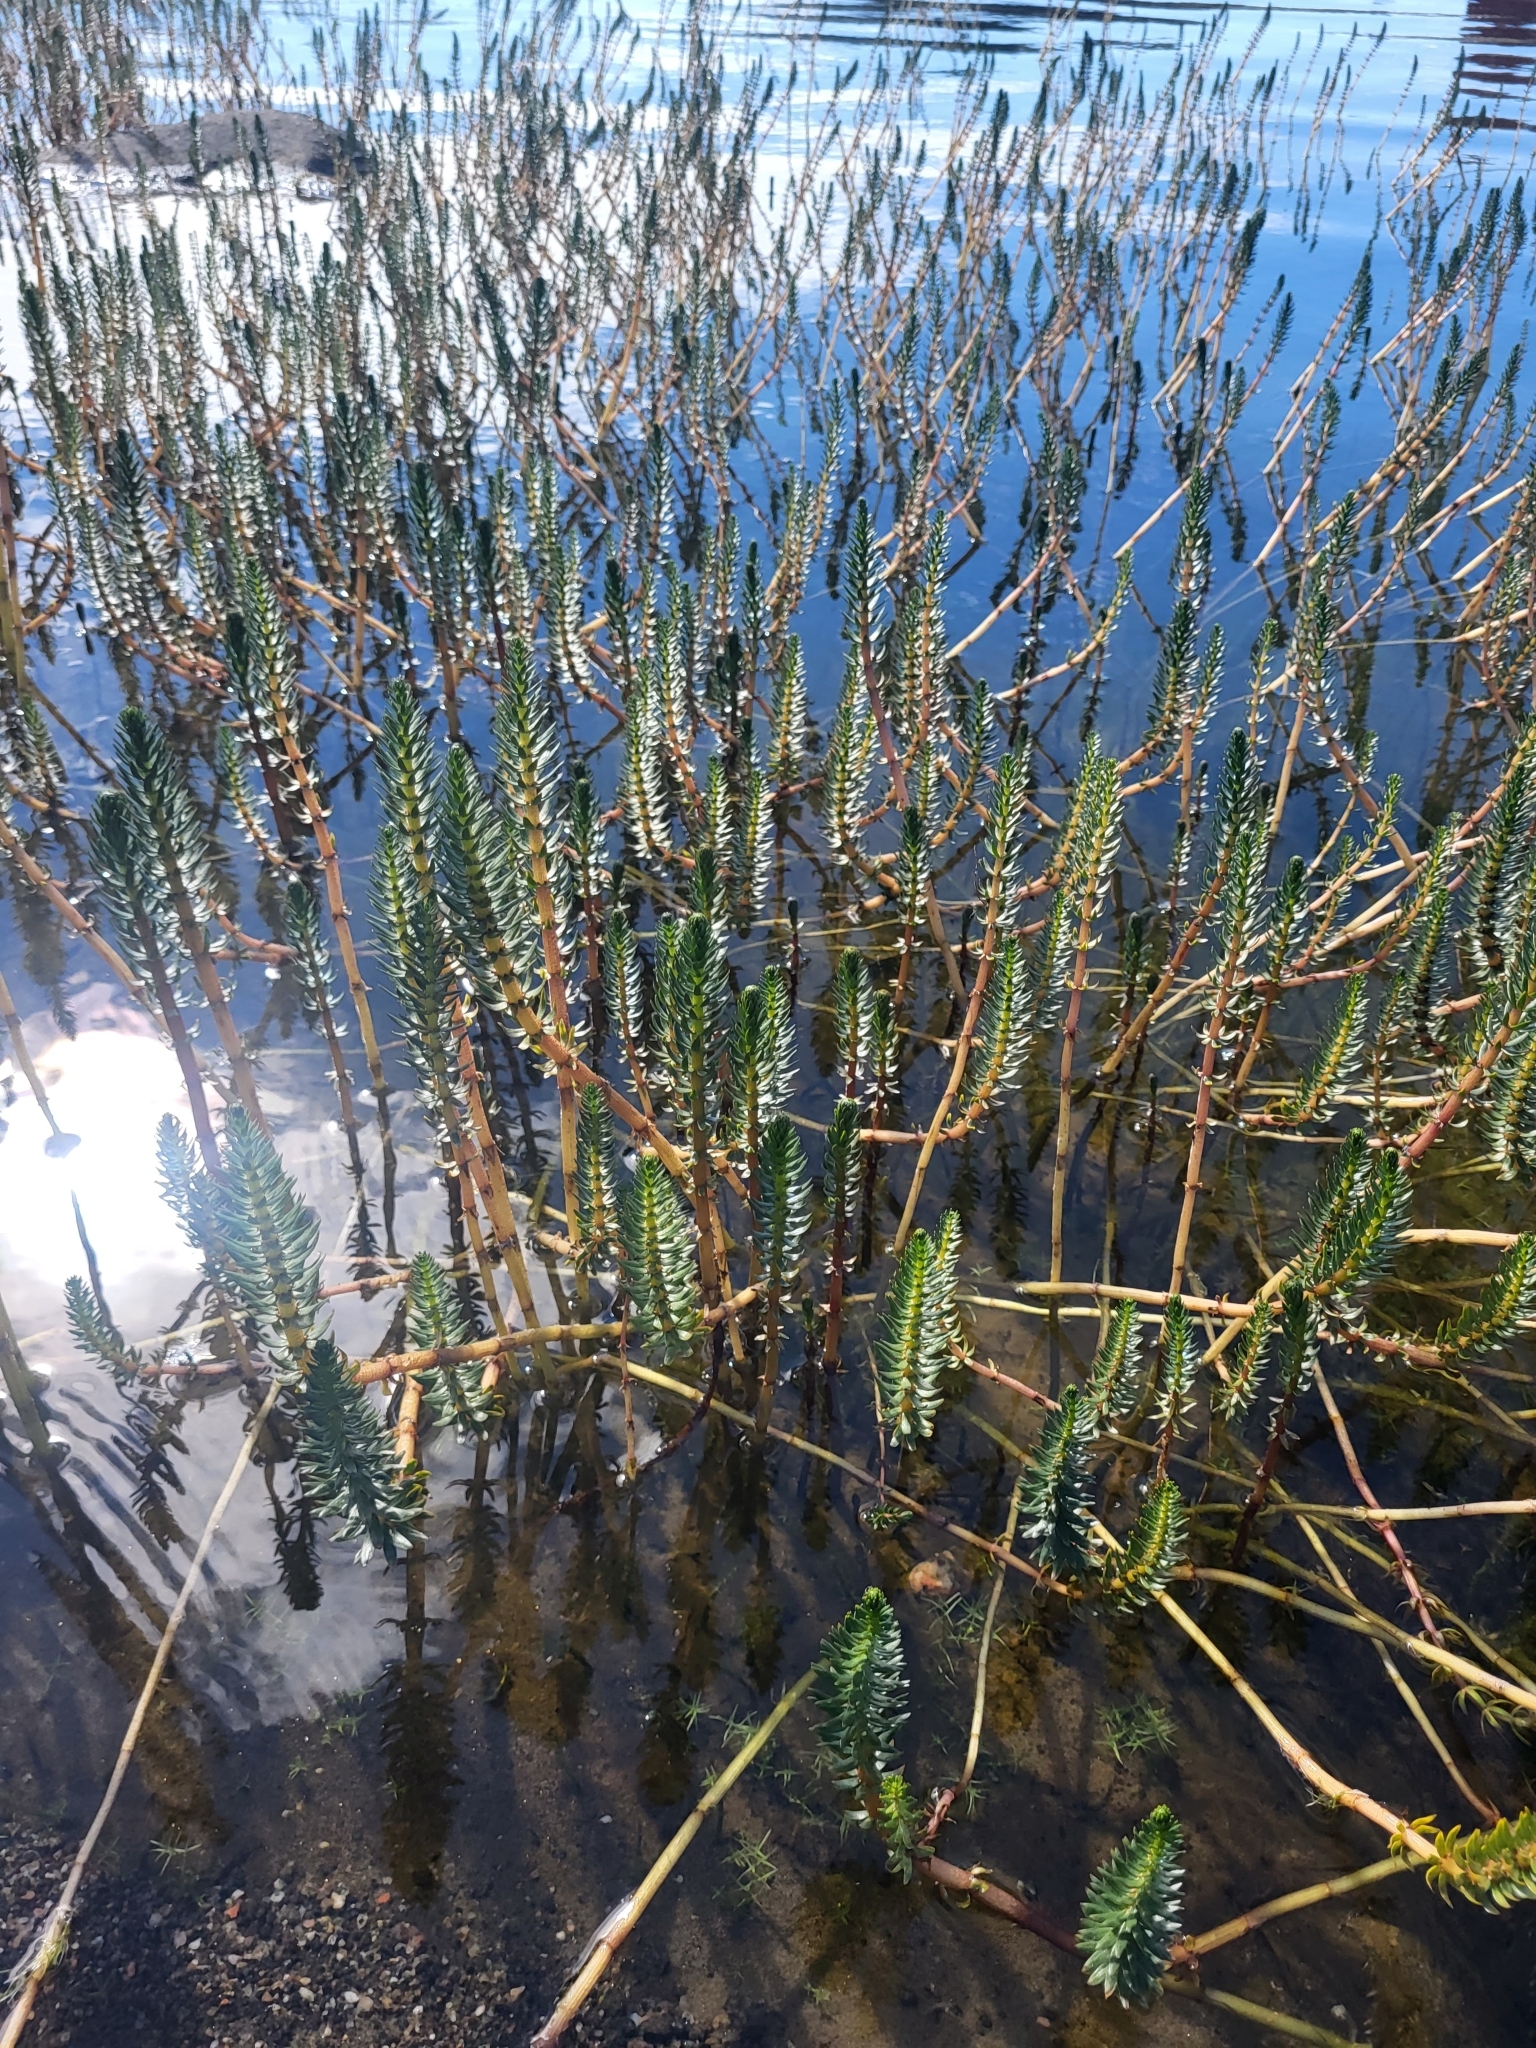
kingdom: Plantae
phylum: Tracheophyta
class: Magnoliopsida
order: Lamiales
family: Plantaginaceae
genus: Hippuris
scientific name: Hippuris vulgaris
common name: Mare's-tail
